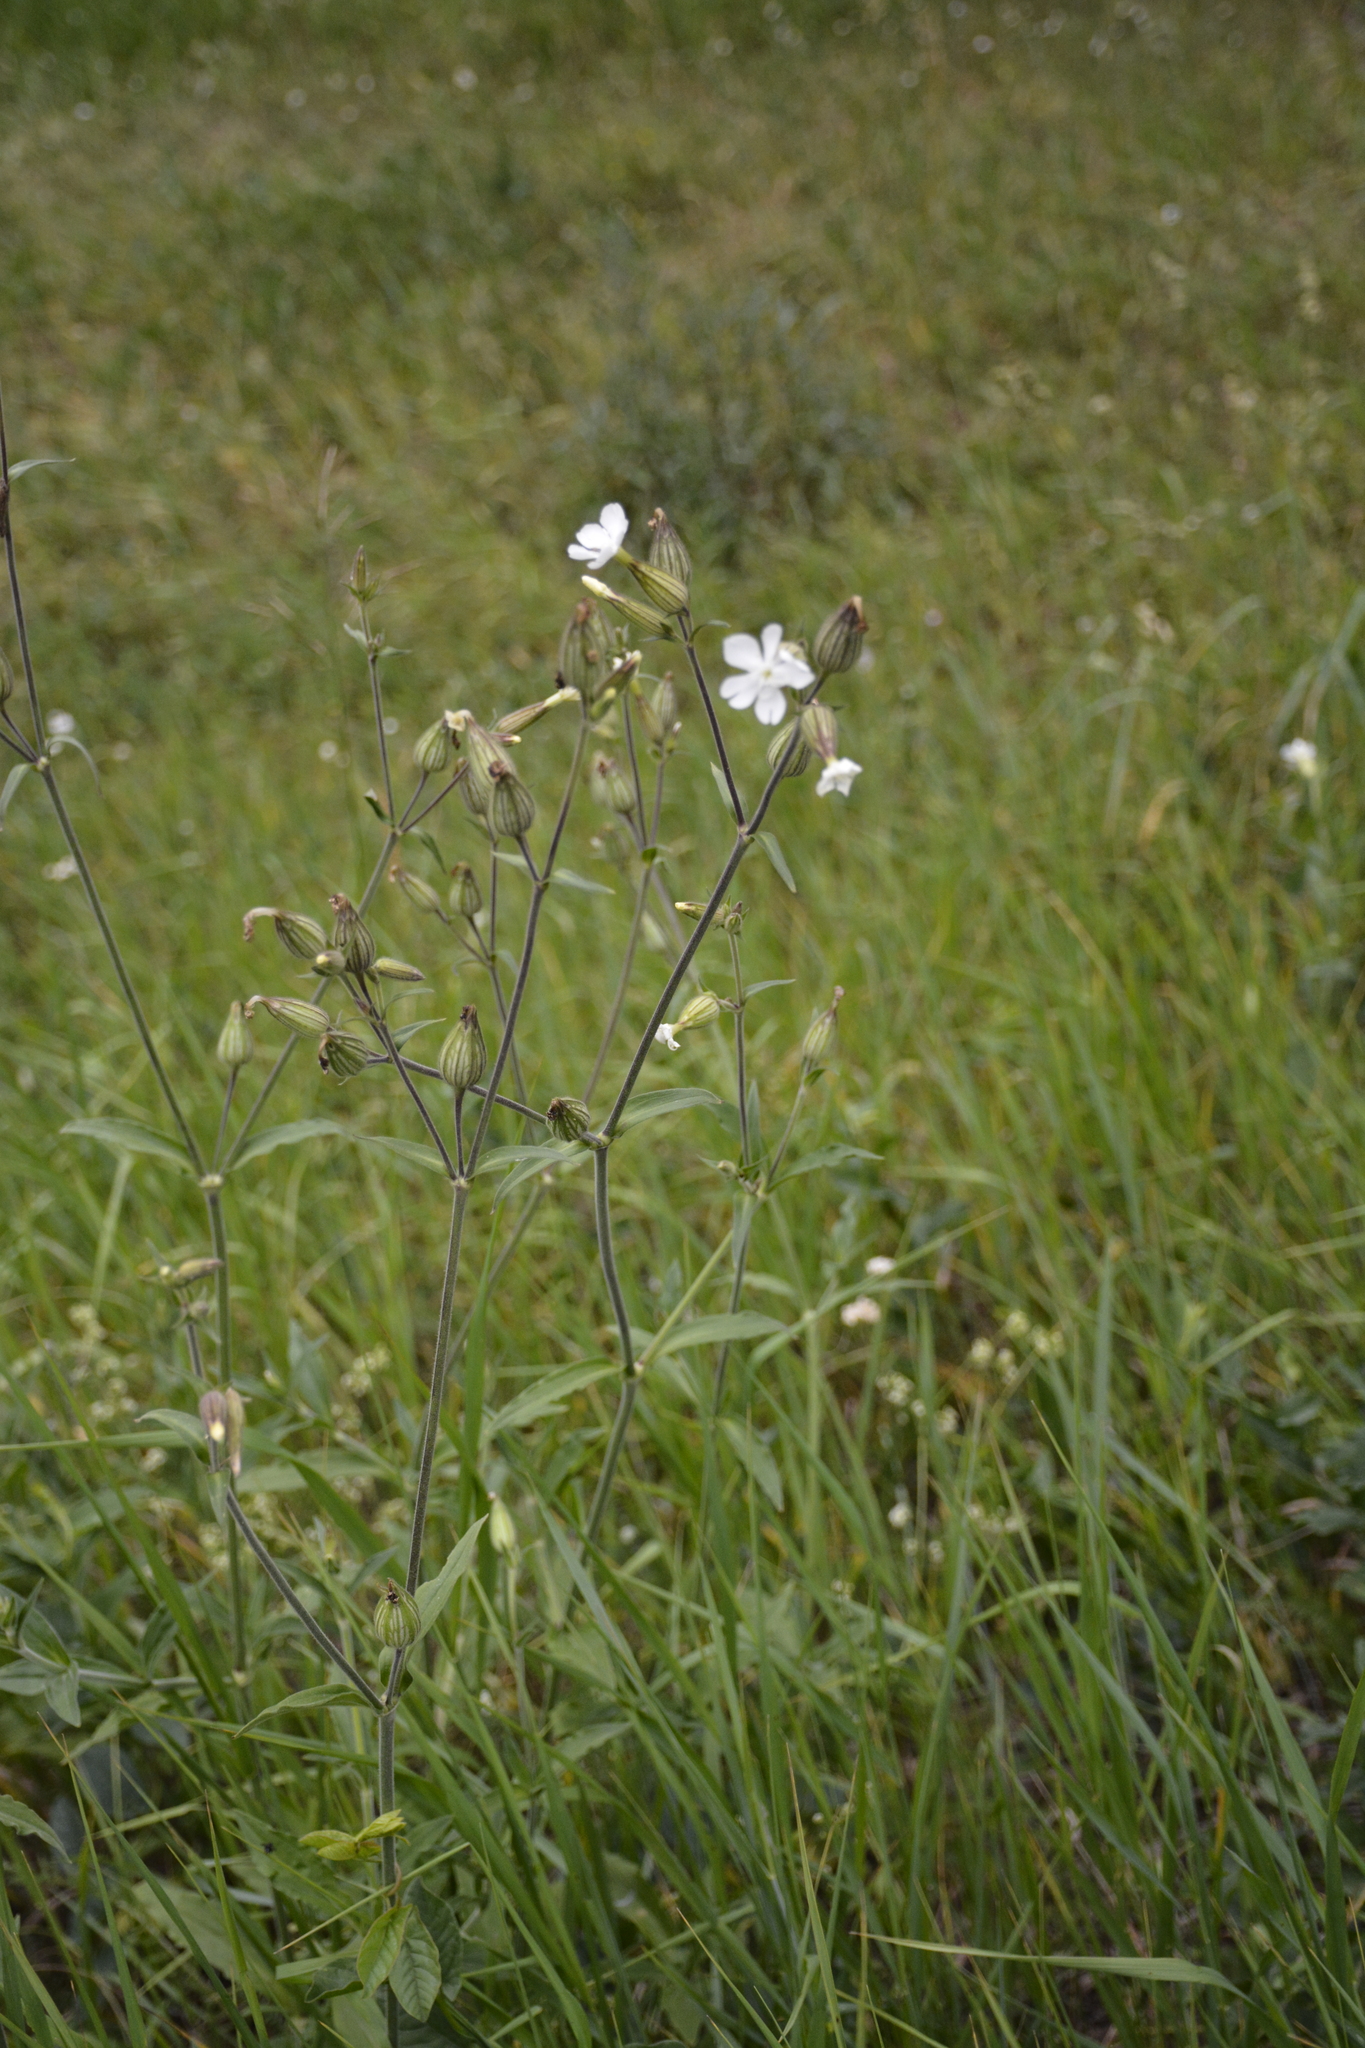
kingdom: Plantae
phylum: Tracheophyta
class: Magnoliopsida
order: Caryophyllales
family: Caryophyllaceae
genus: Silene
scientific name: Silene latifolia
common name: White campion
